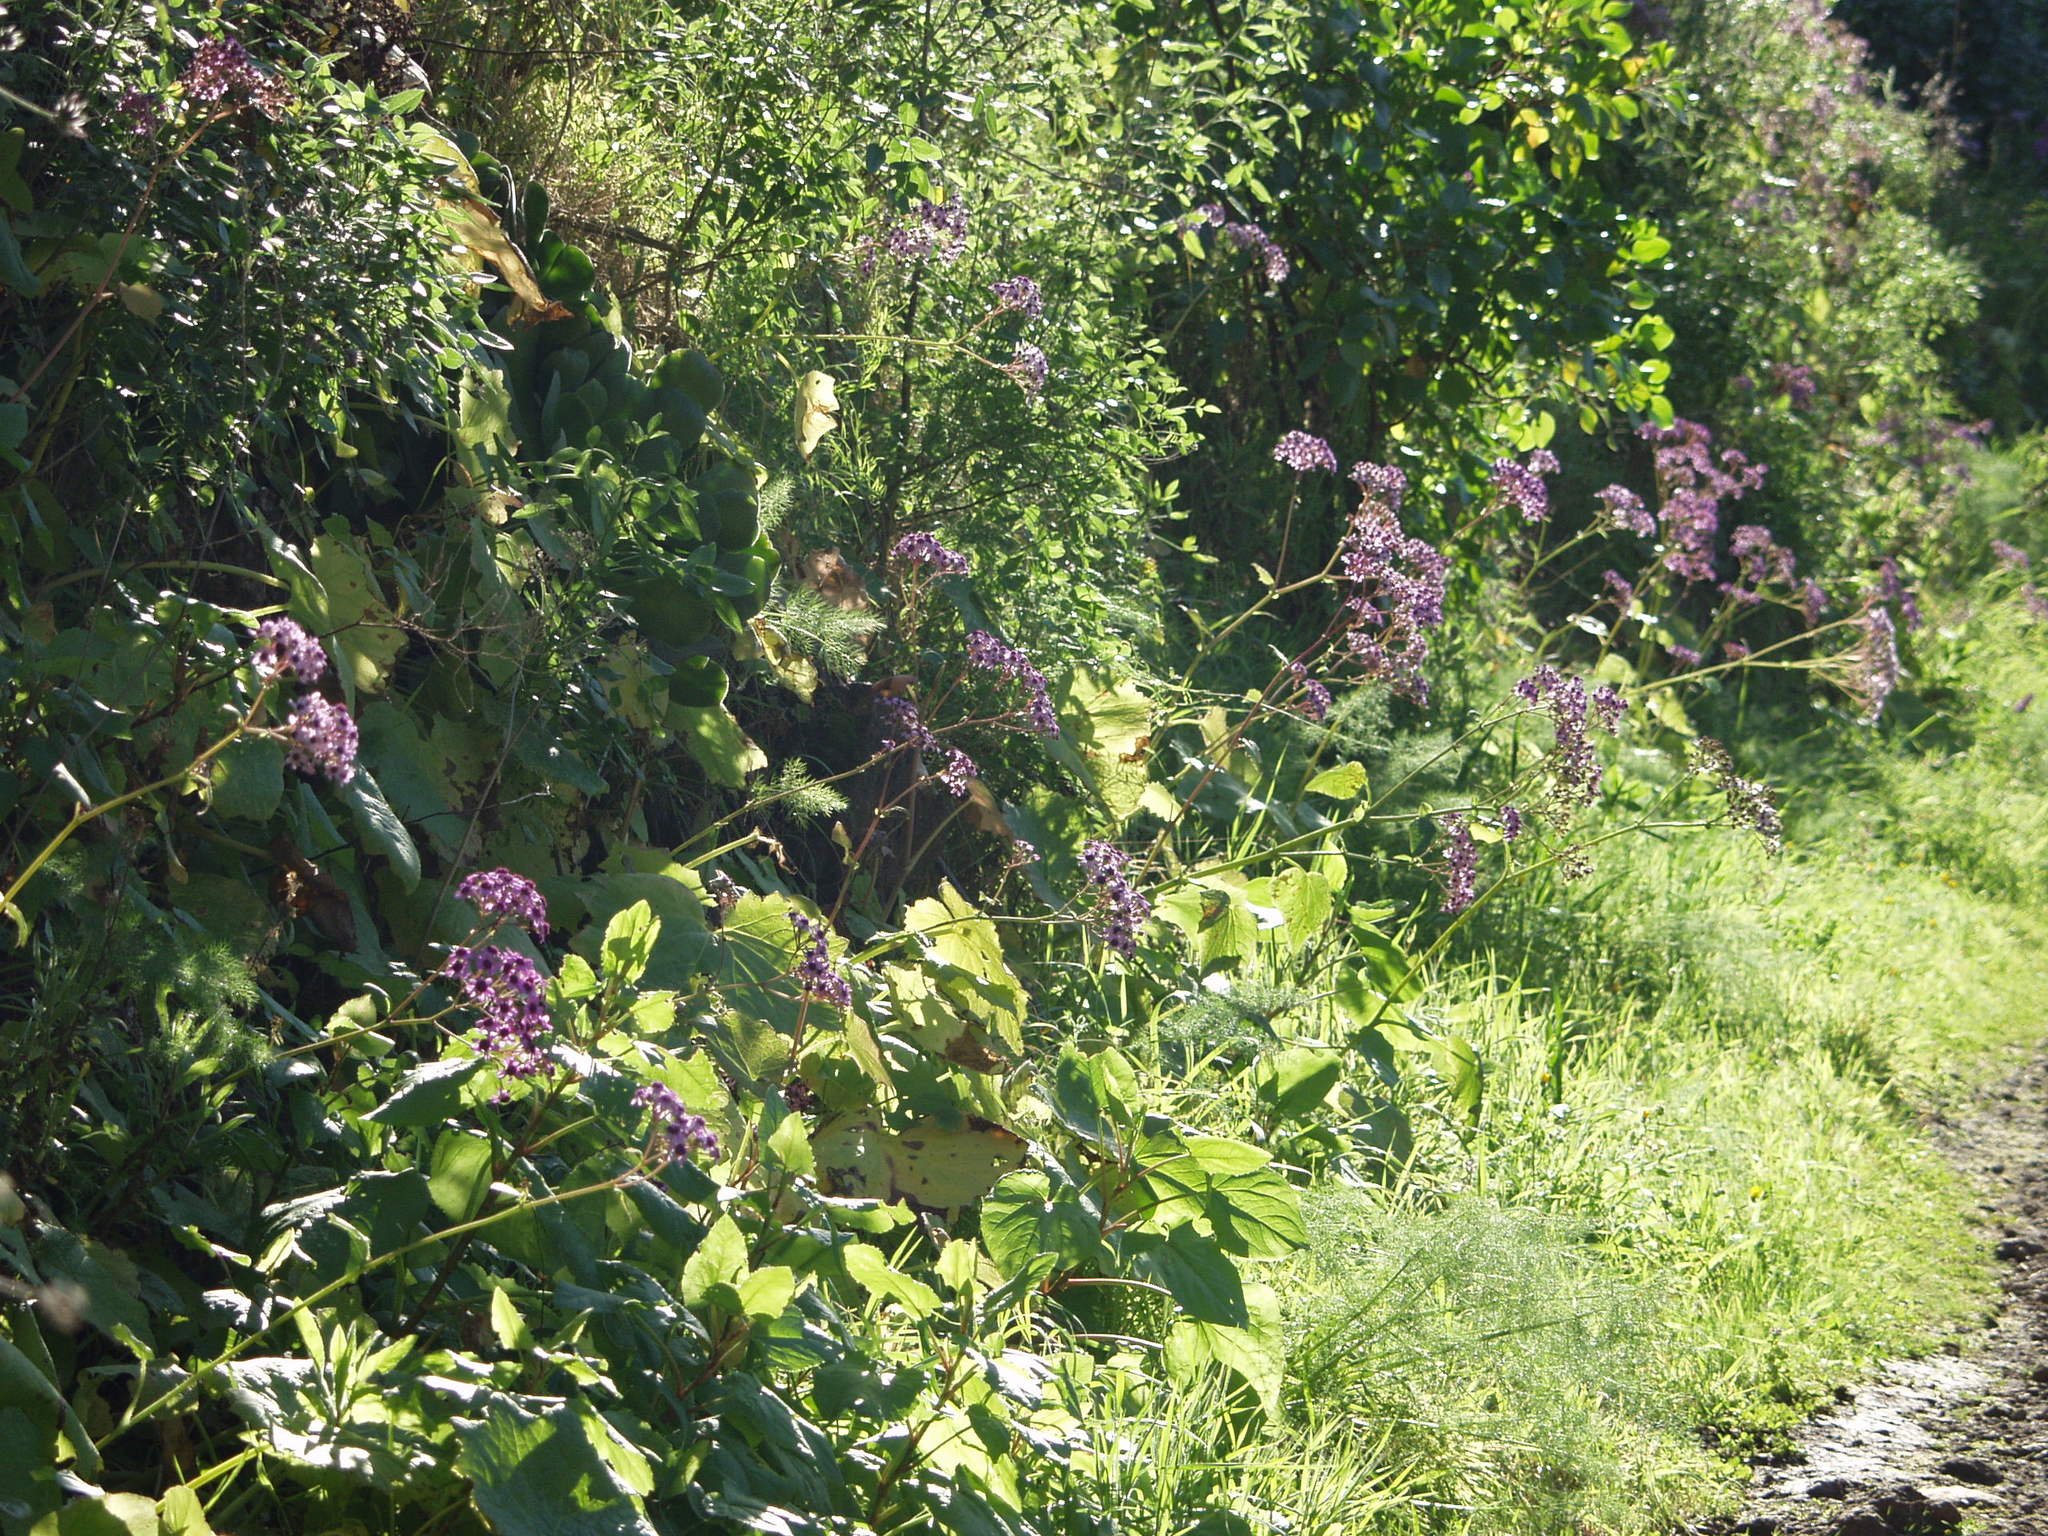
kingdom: Plantae
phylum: Tracheophyta
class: Magnoliopsida
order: Asterales
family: Asteraceae
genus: Pericallis
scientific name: Pericallis papyracea
